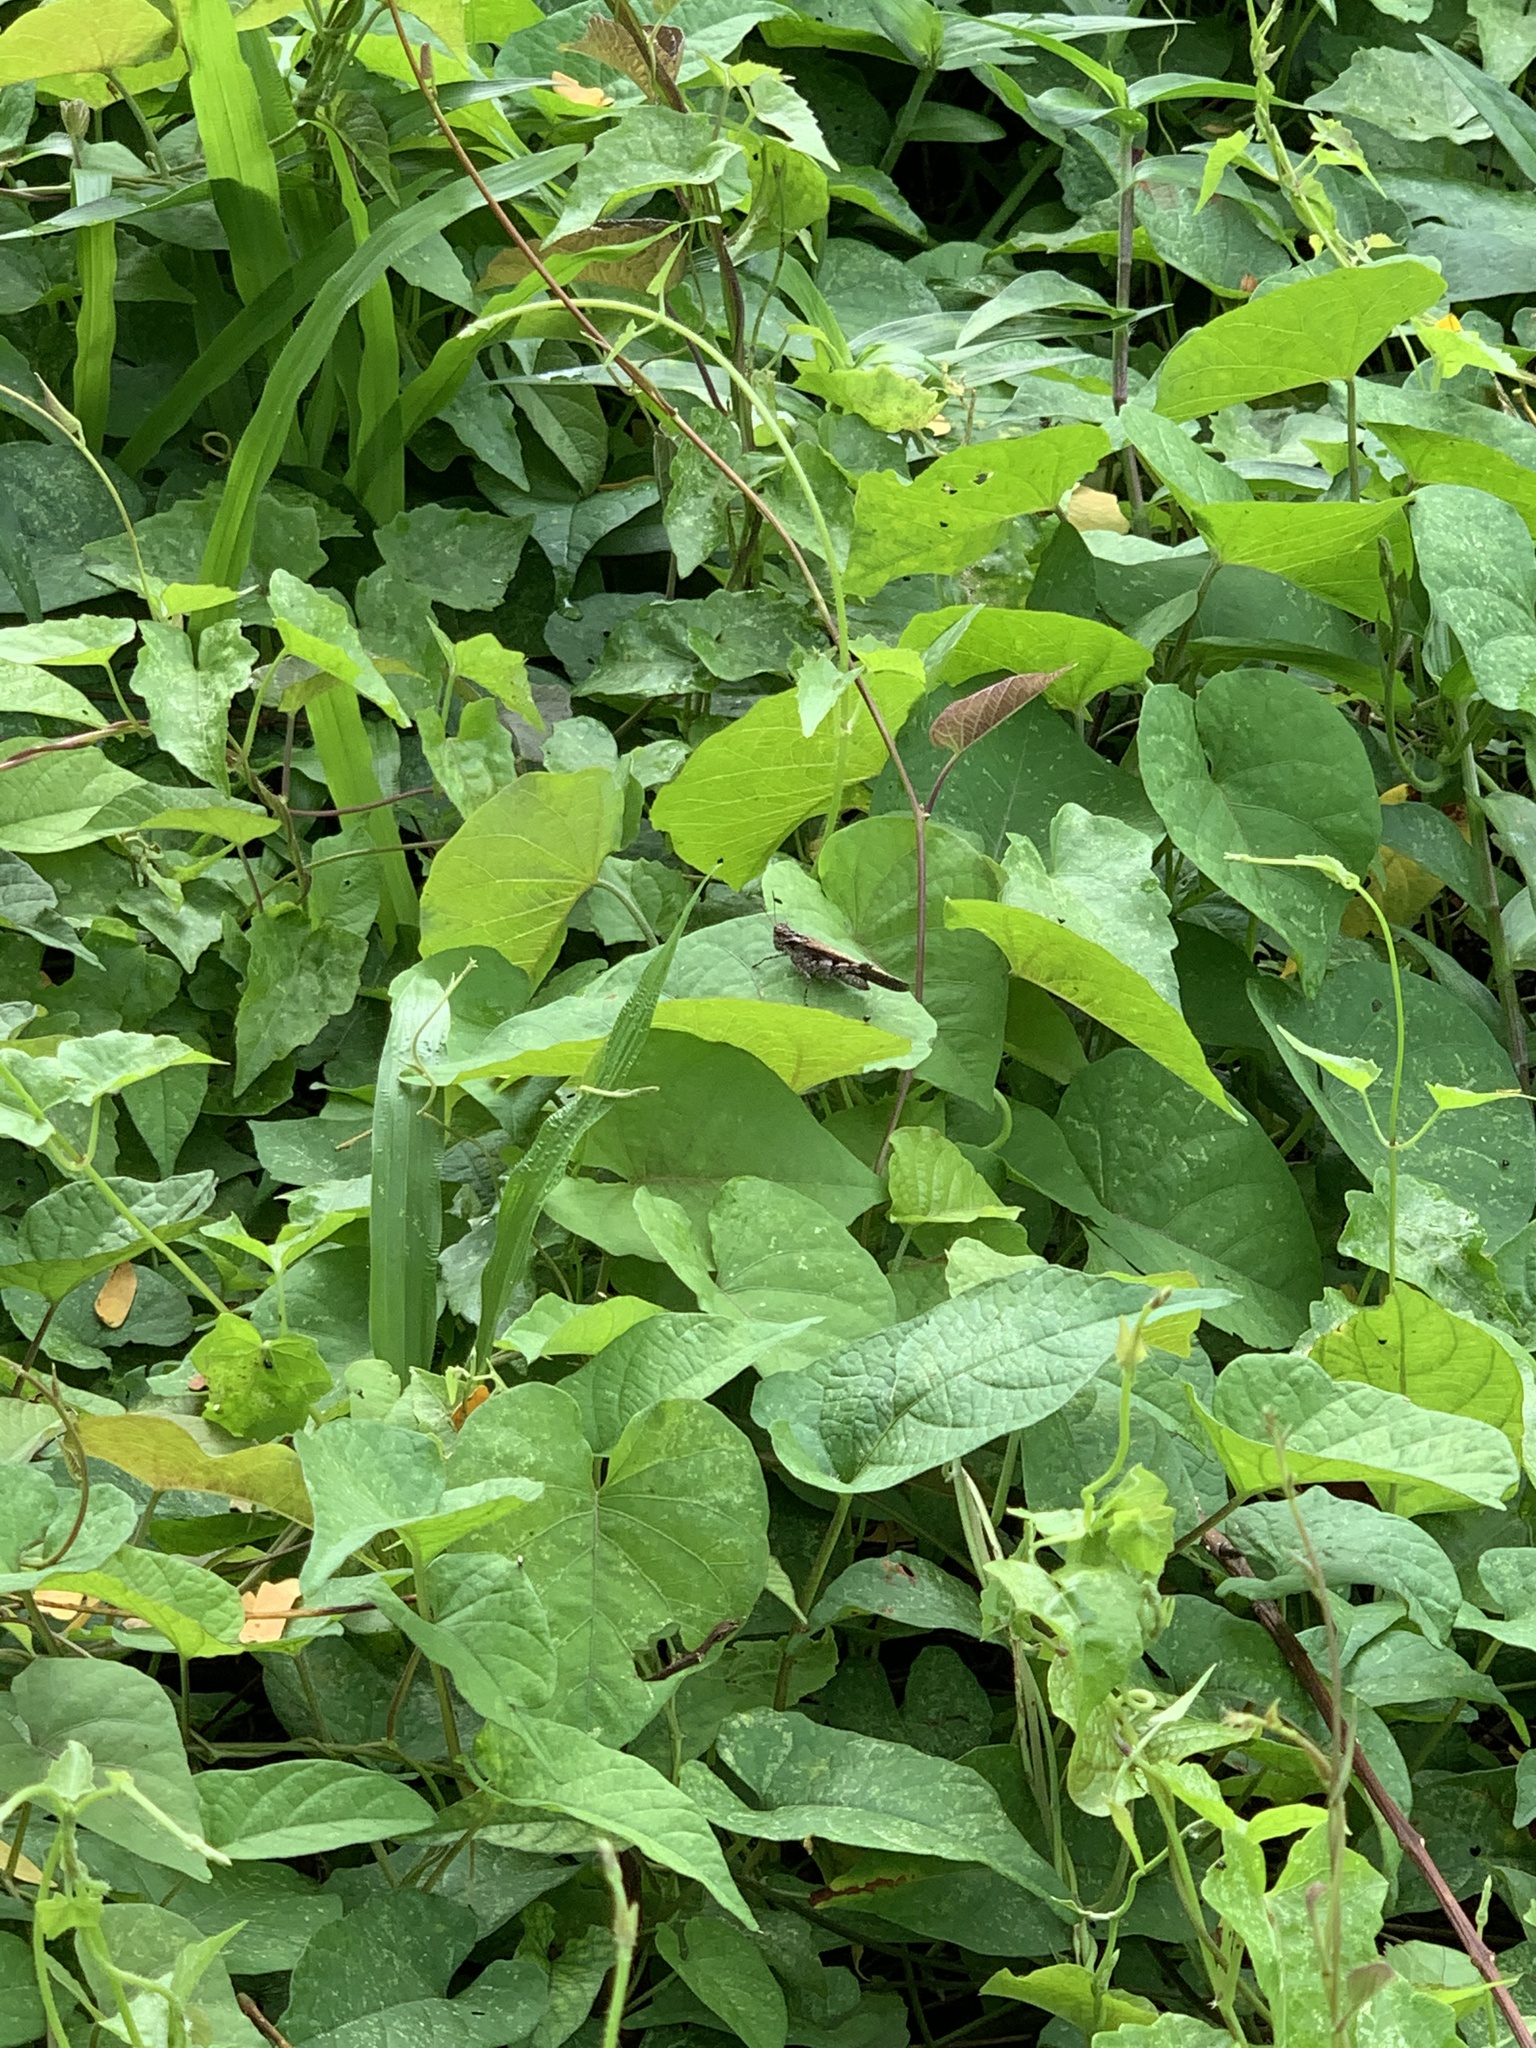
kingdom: Animalia
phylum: Arthropoda
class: Insecta
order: Orthoptera
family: Acrididae
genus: Trilophidia
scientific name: Trilophidia annulata
